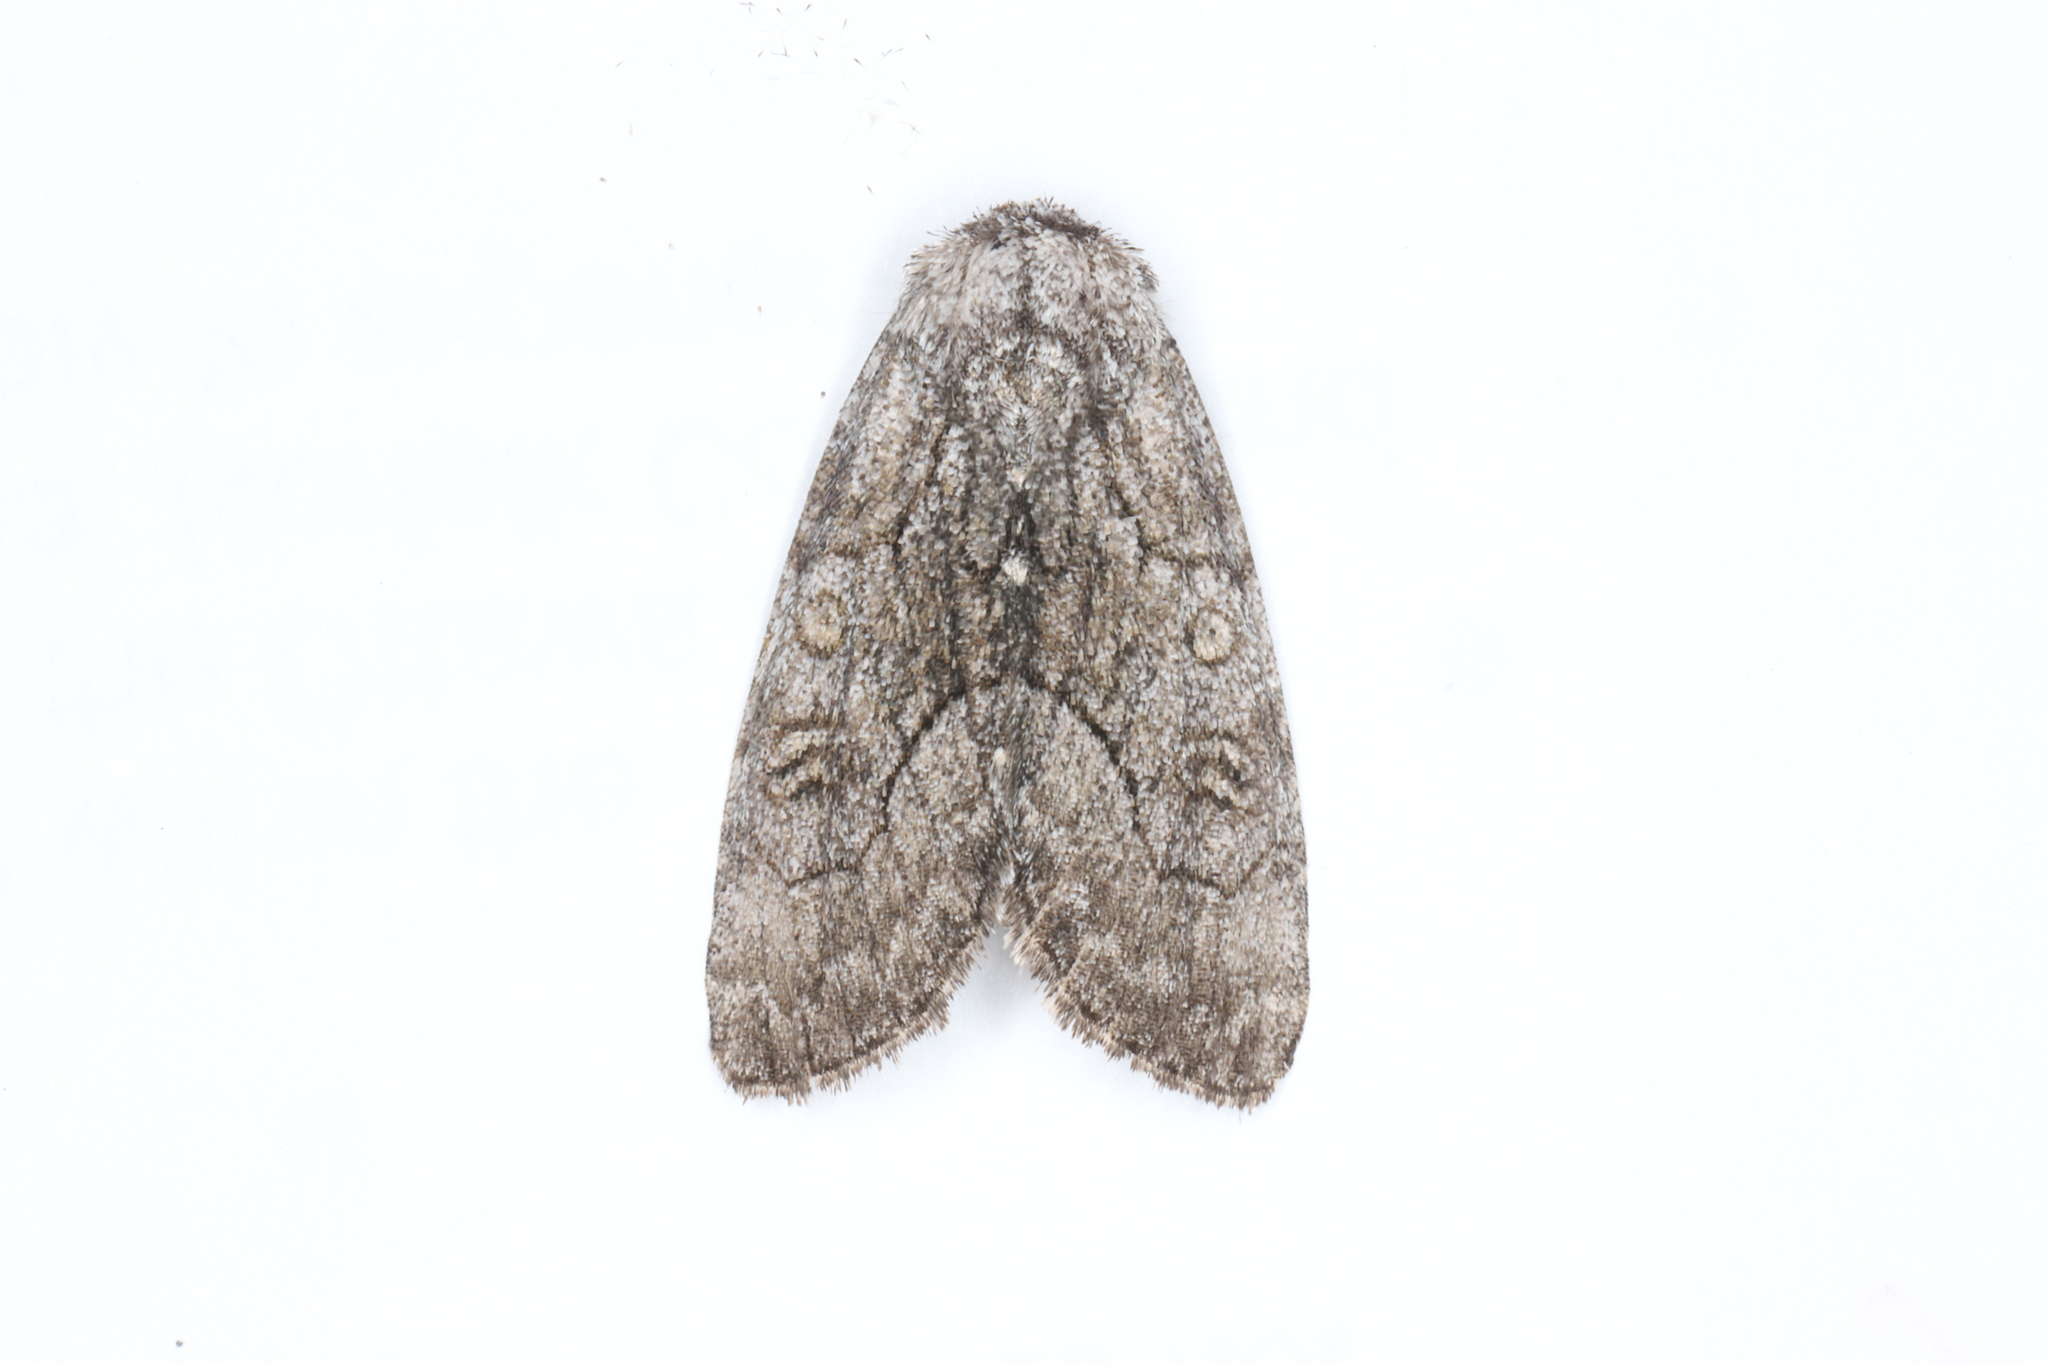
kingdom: Animalia
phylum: Arthropoda
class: Insecta
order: Lepidoptera
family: Noctuidae
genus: Raphia
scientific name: Raphia frater
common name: Brother
